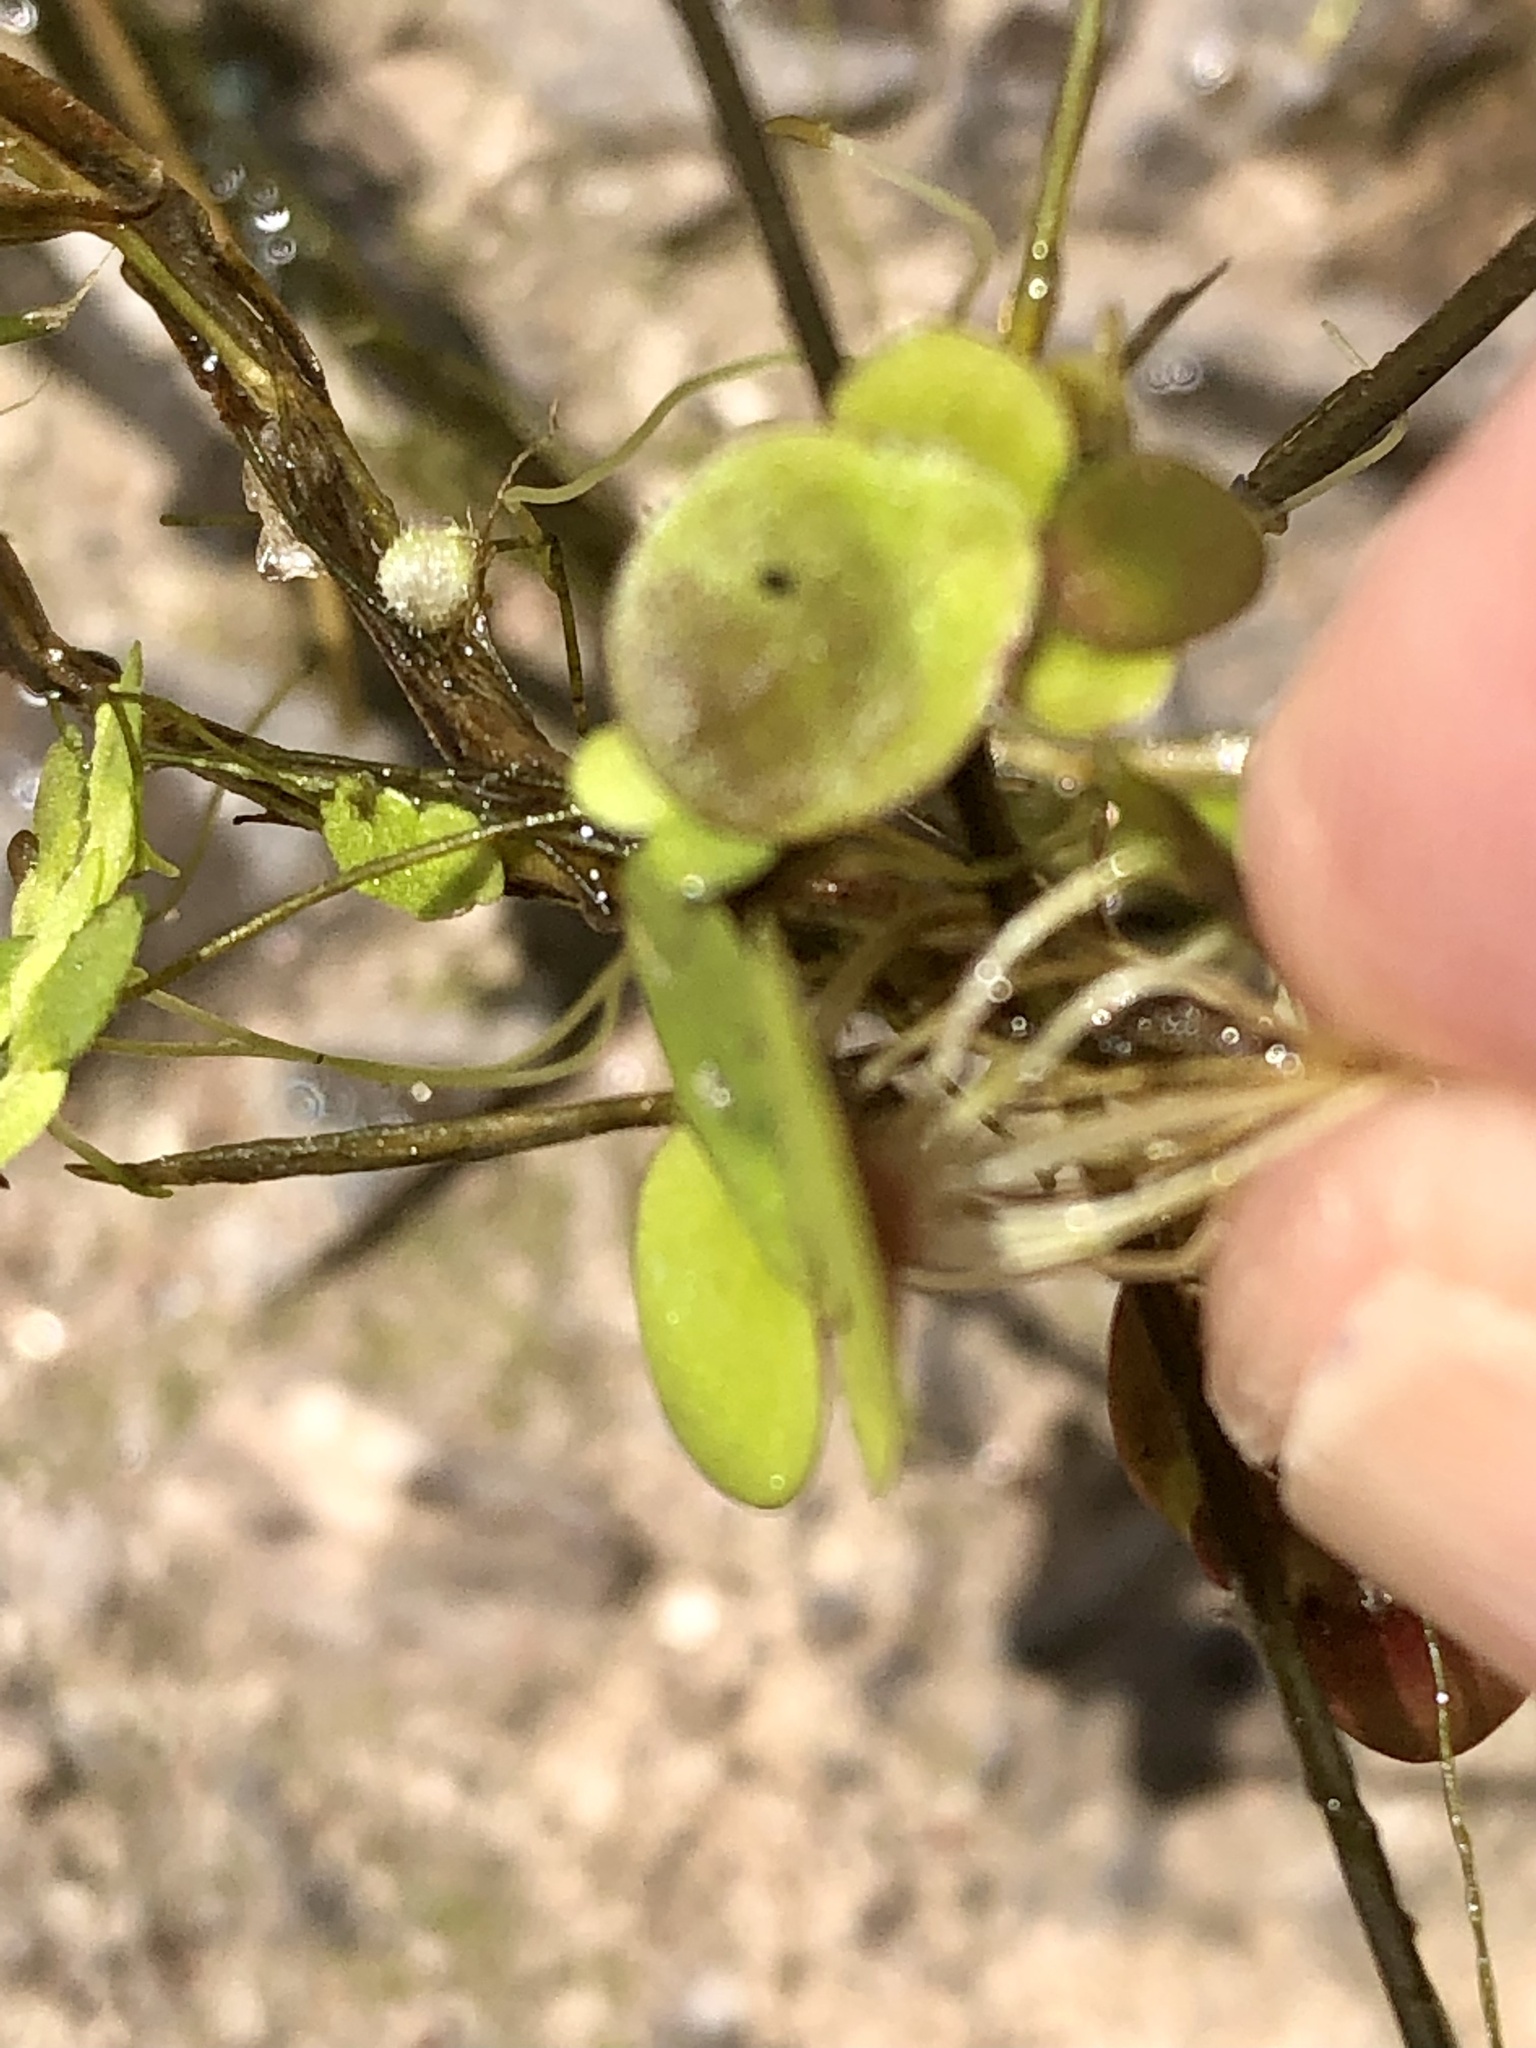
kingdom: Plantae
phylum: Tracheophyta
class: Liliopsida
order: Alismatales
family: Araceae
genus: Spirodela
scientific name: Spirodela polyrhiza
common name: Great duckweed
